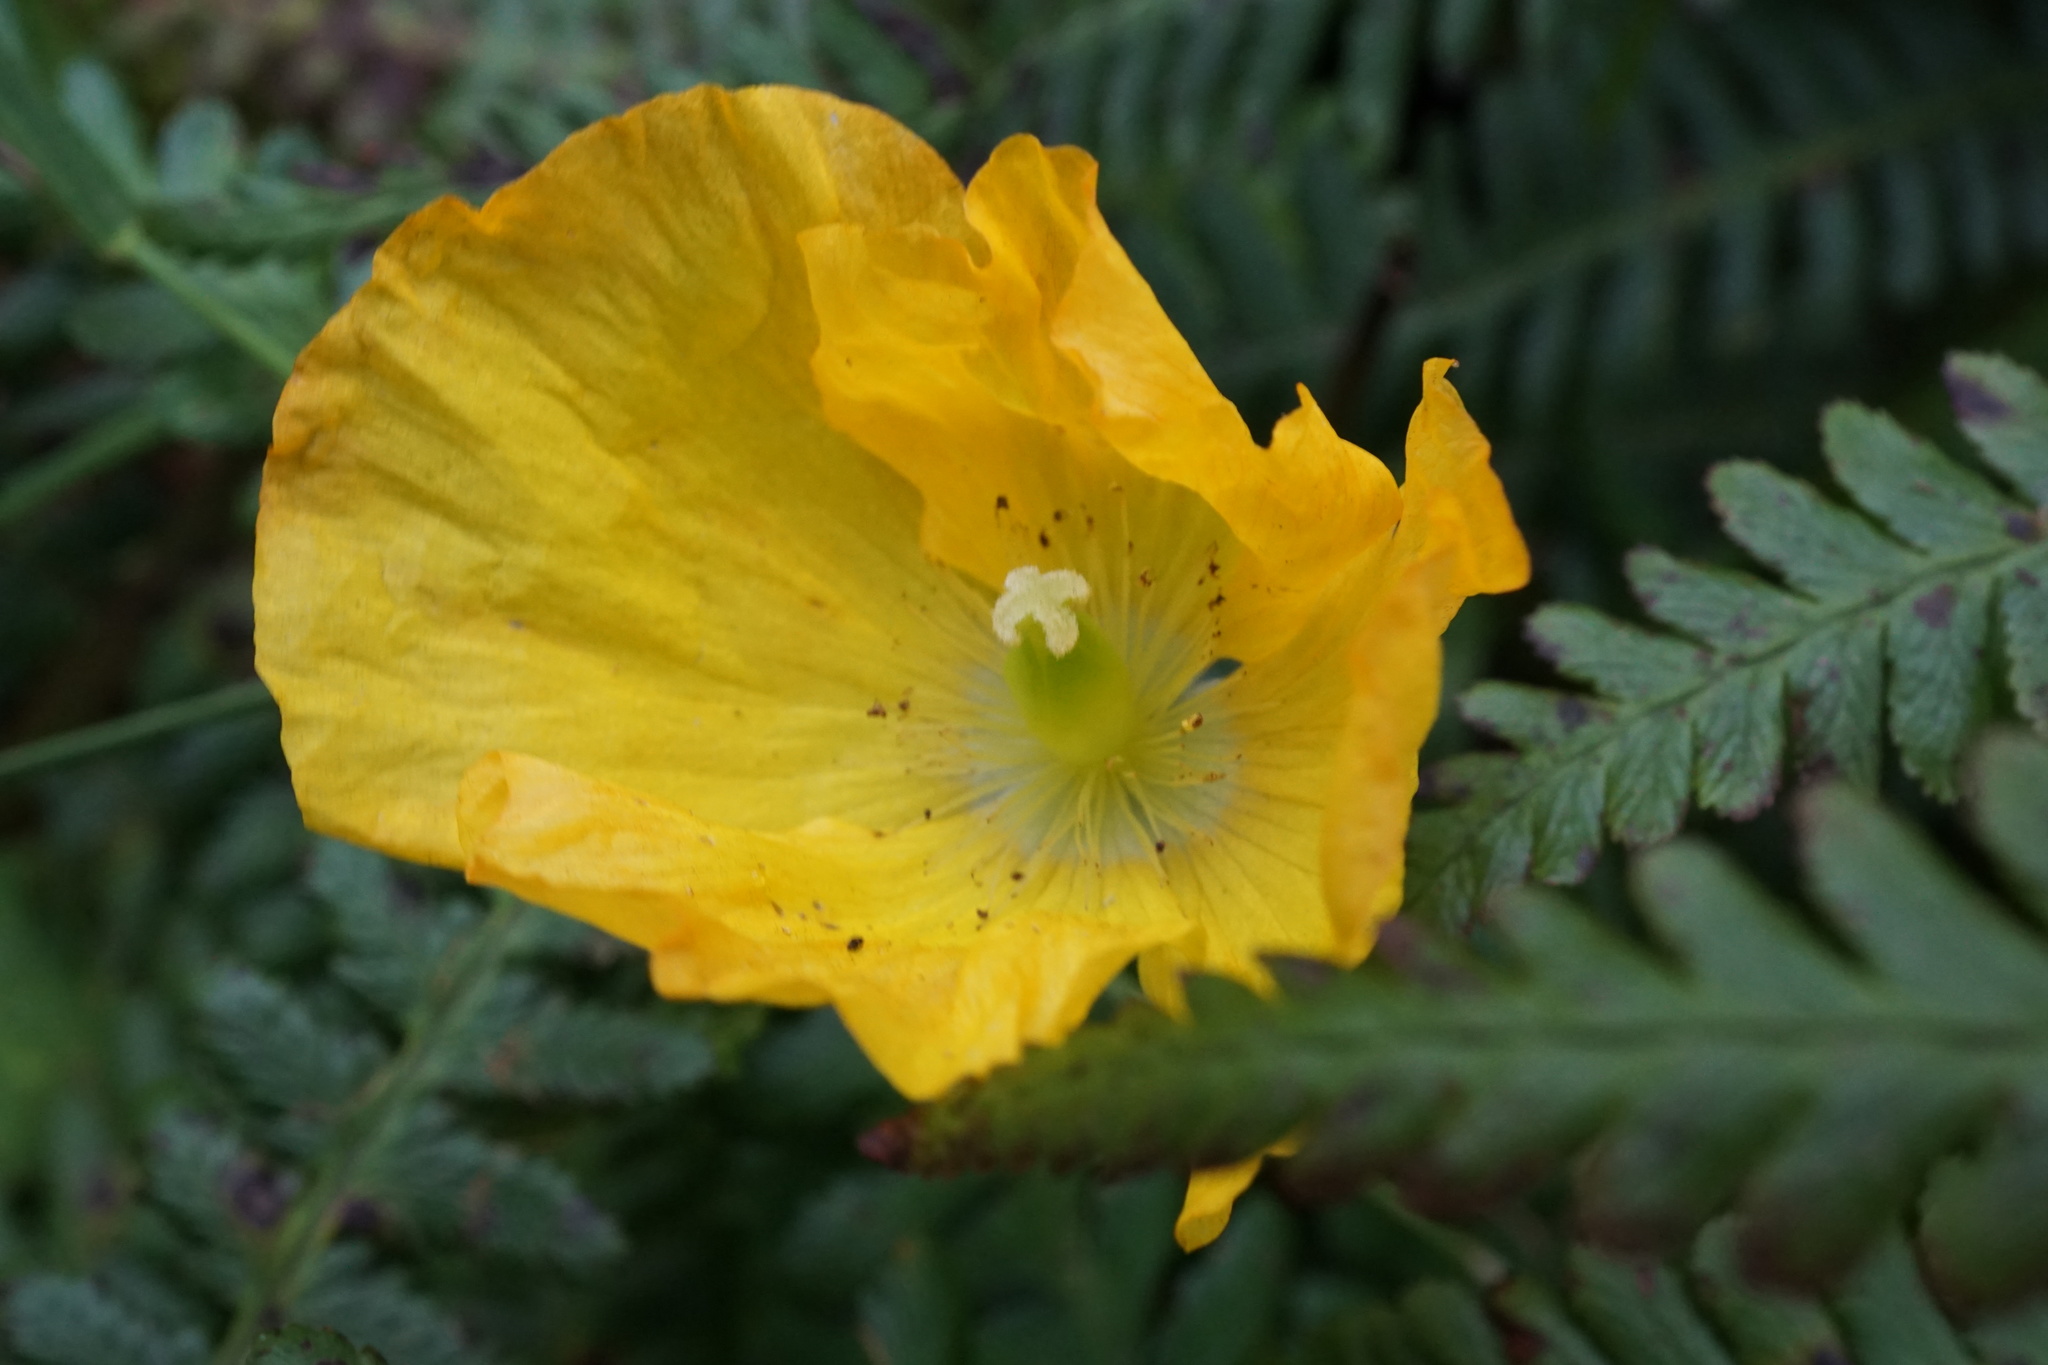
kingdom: Plantae
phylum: Tracheophyta
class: Magnoliopsida
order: Ranunculales
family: Papaveraceae
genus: Papaver
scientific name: Papaver cambricum
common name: Poppy
